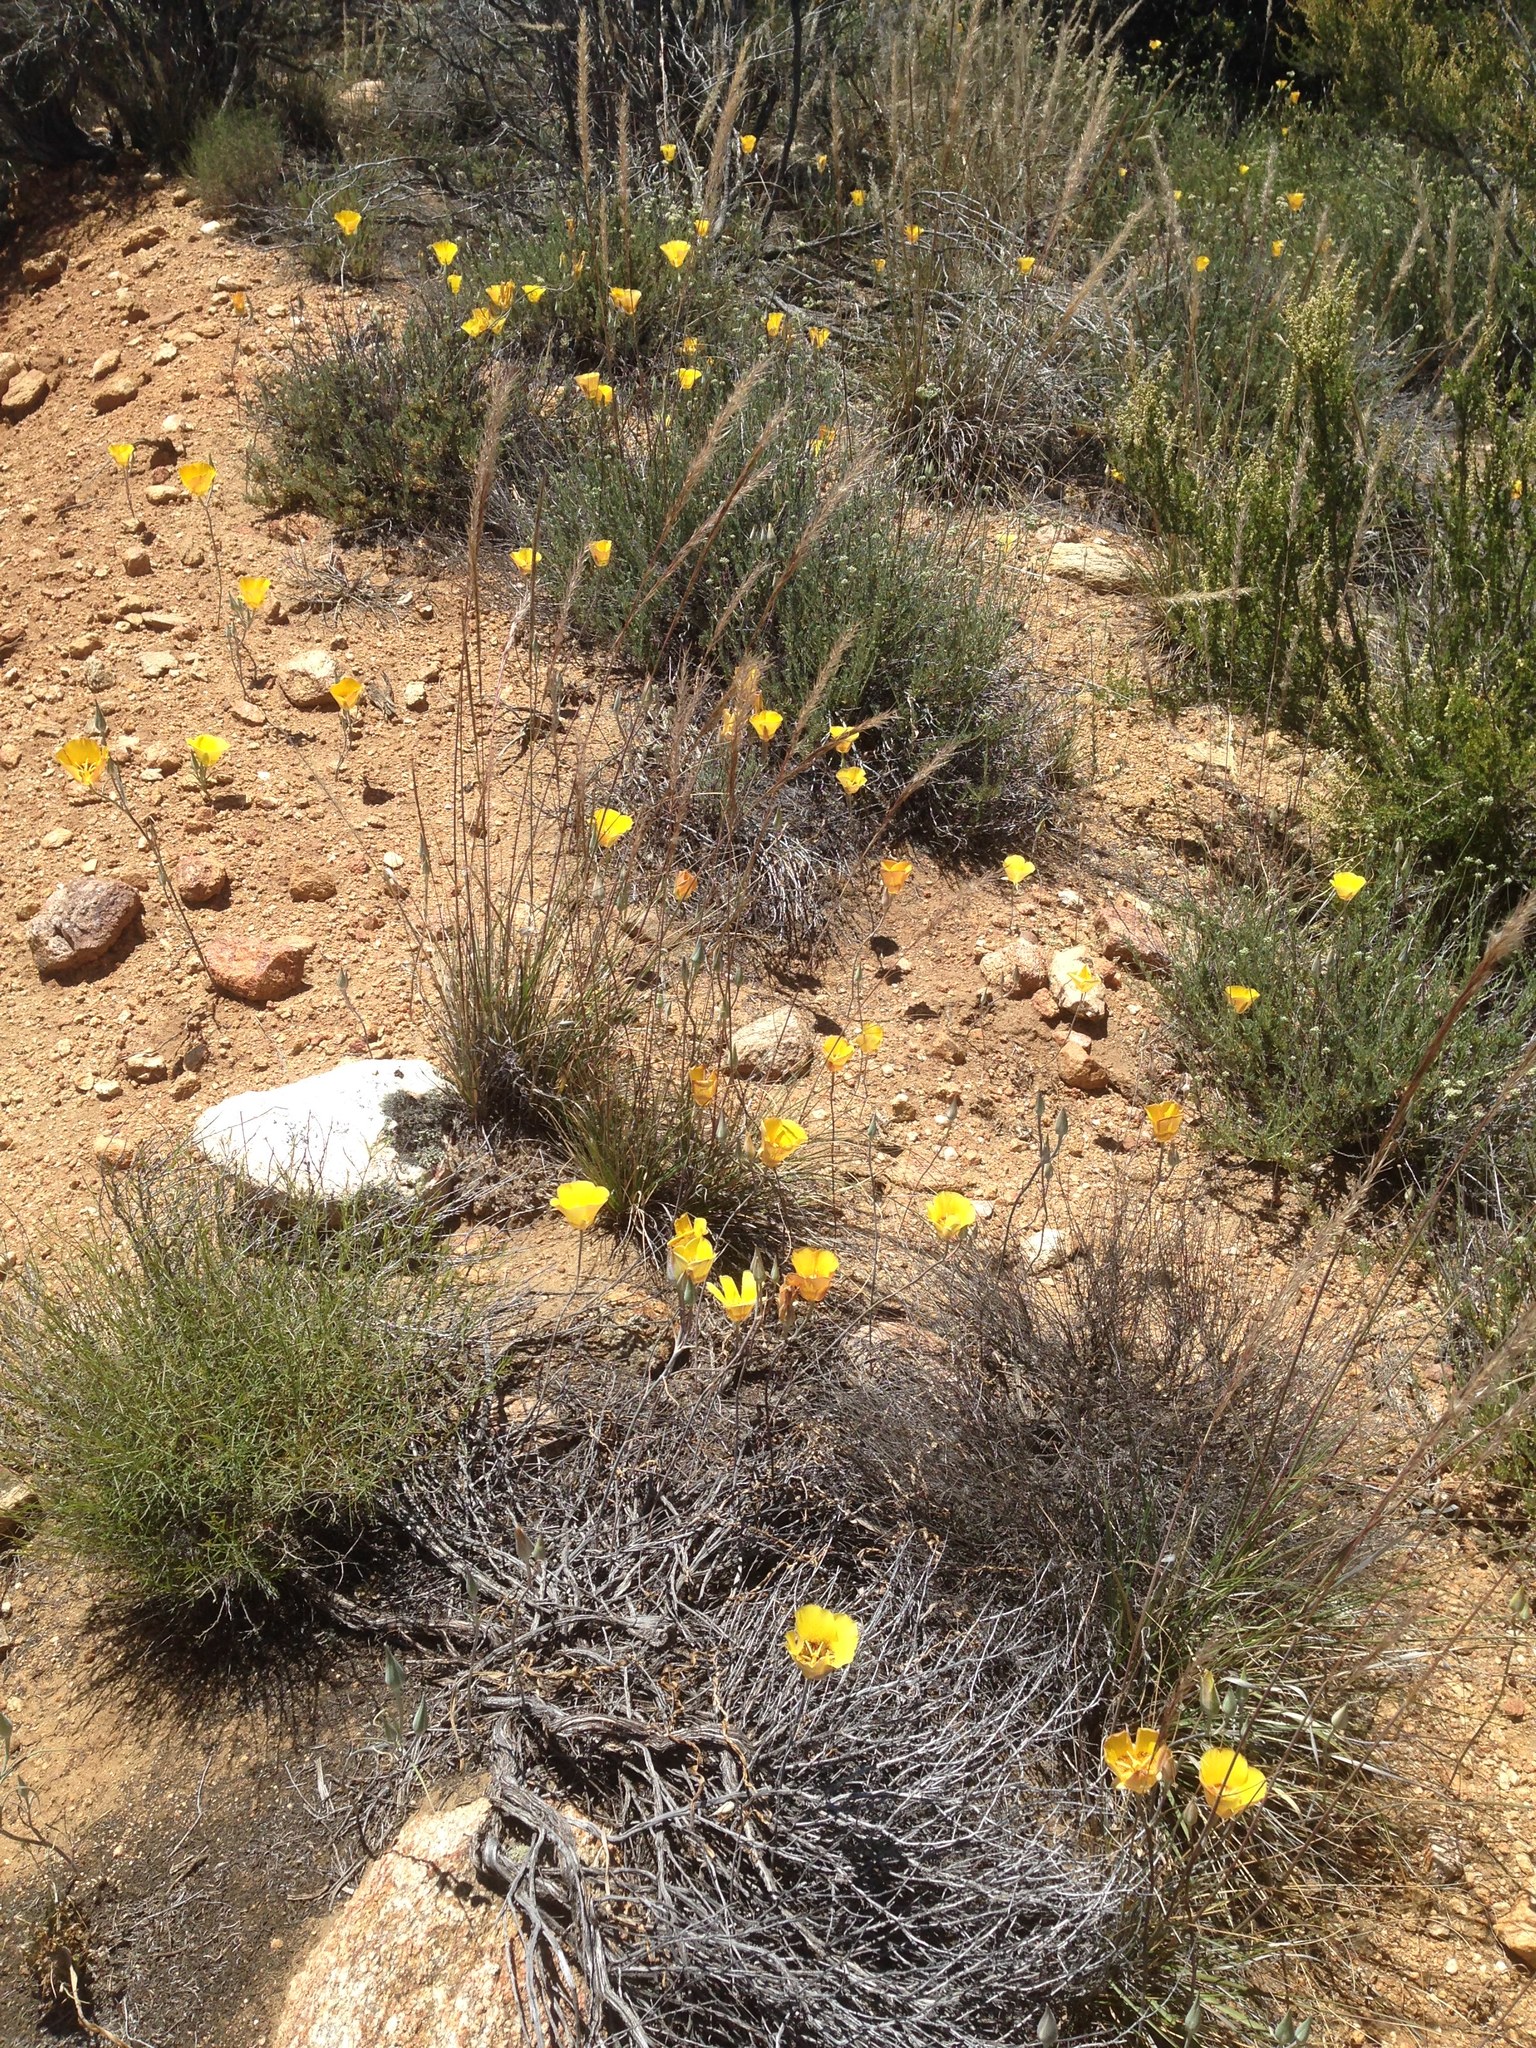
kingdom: Plantae
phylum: Tracheophyta
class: Liliopsida
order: Liliales
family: Liliaceae
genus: Calochortus
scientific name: Calochortus concolor
